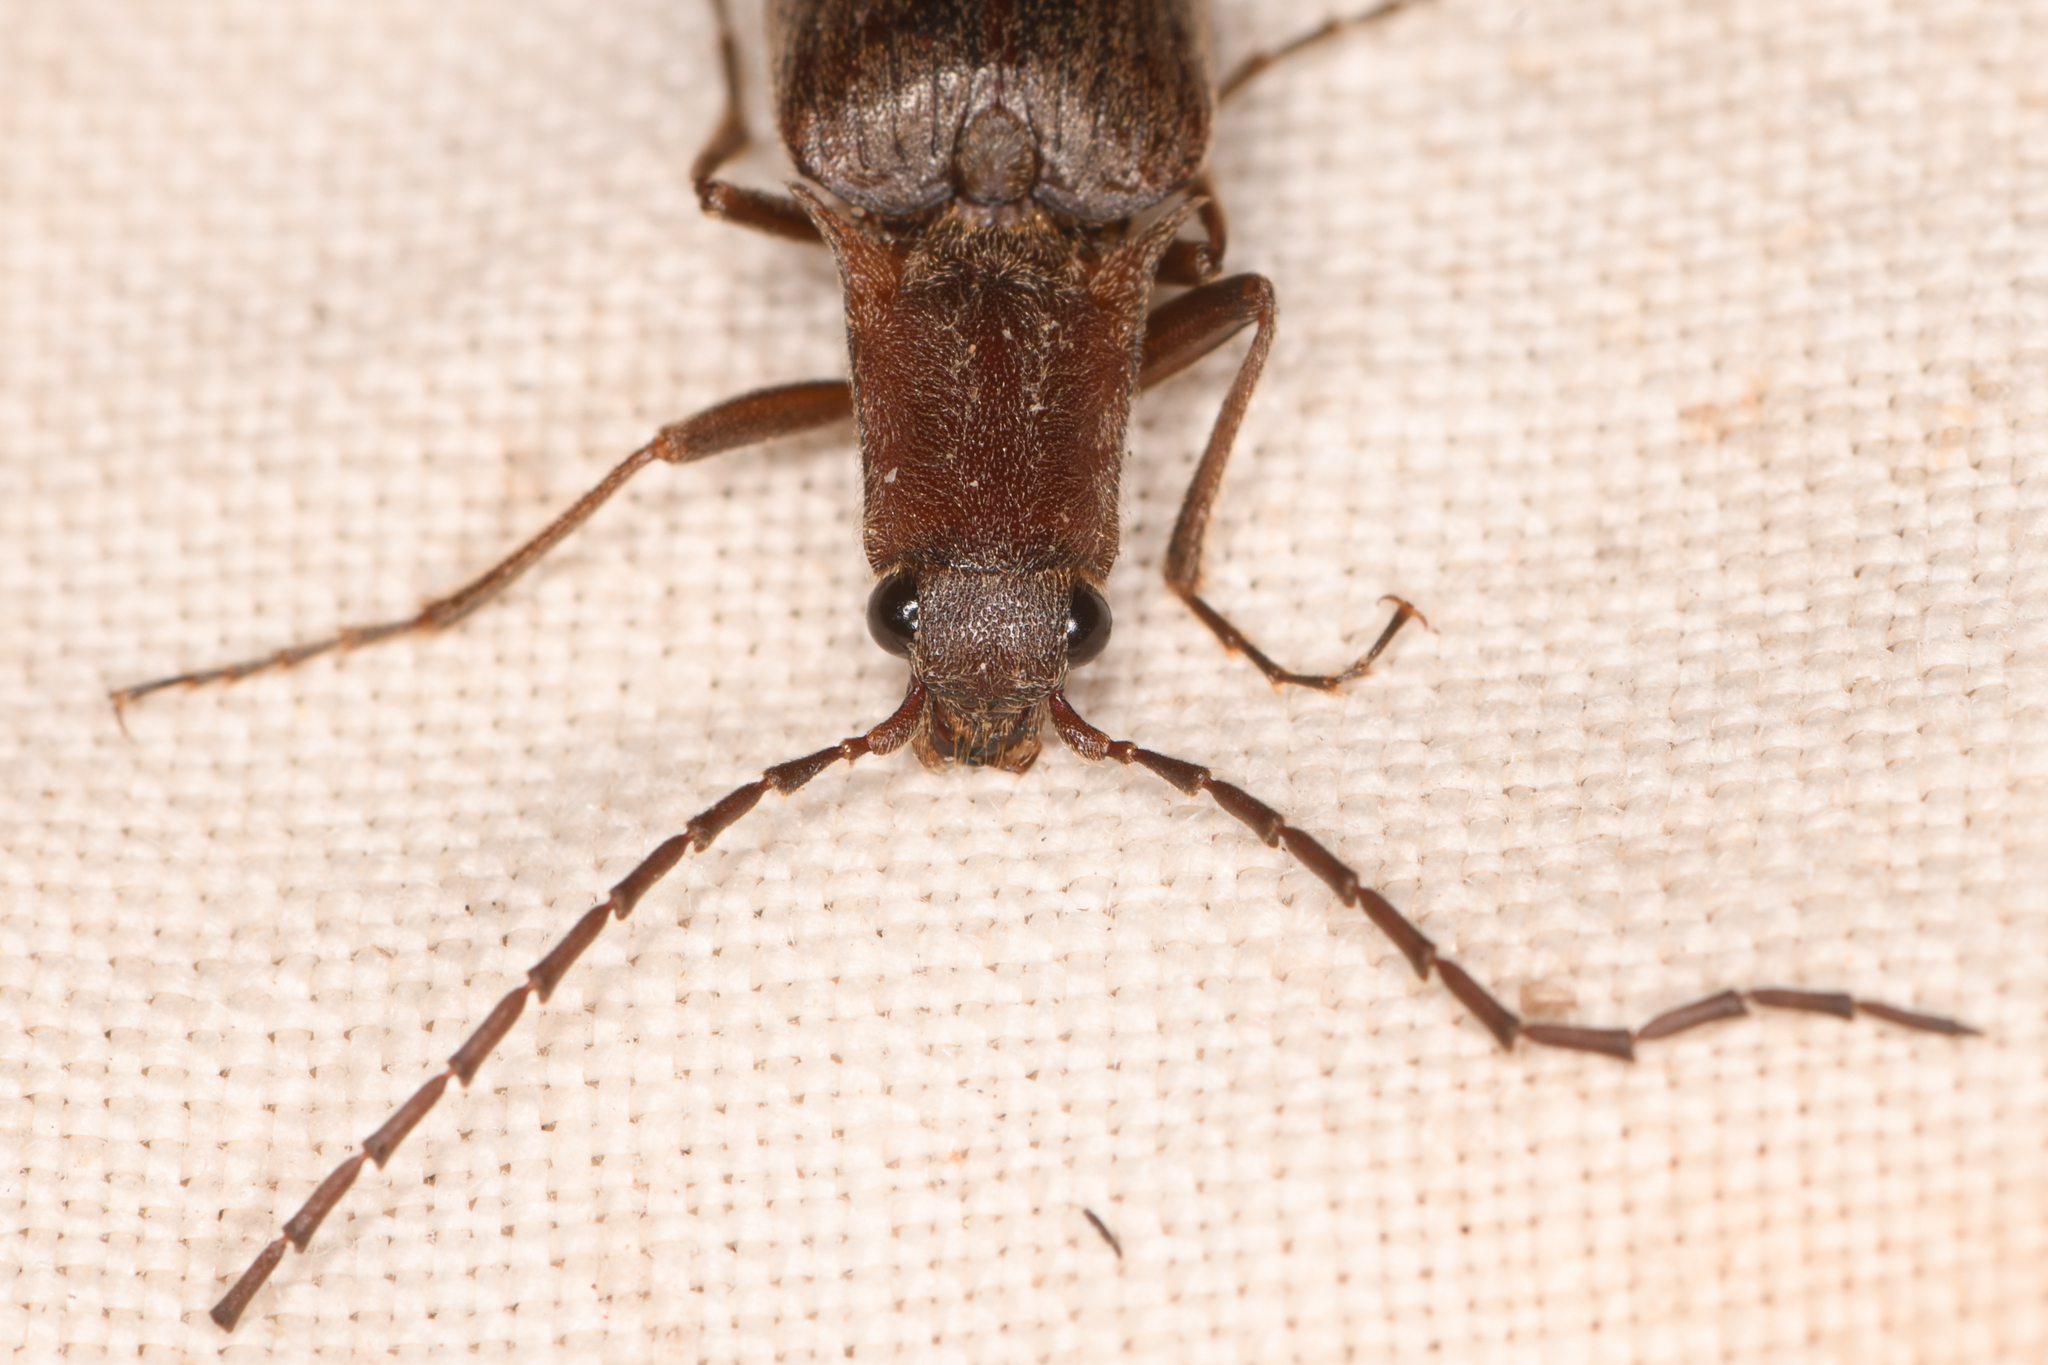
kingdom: Animalia
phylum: Arthropoda
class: Insecta
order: Coleoptera
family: Elateridae
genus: Proludius
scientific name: Proludius
